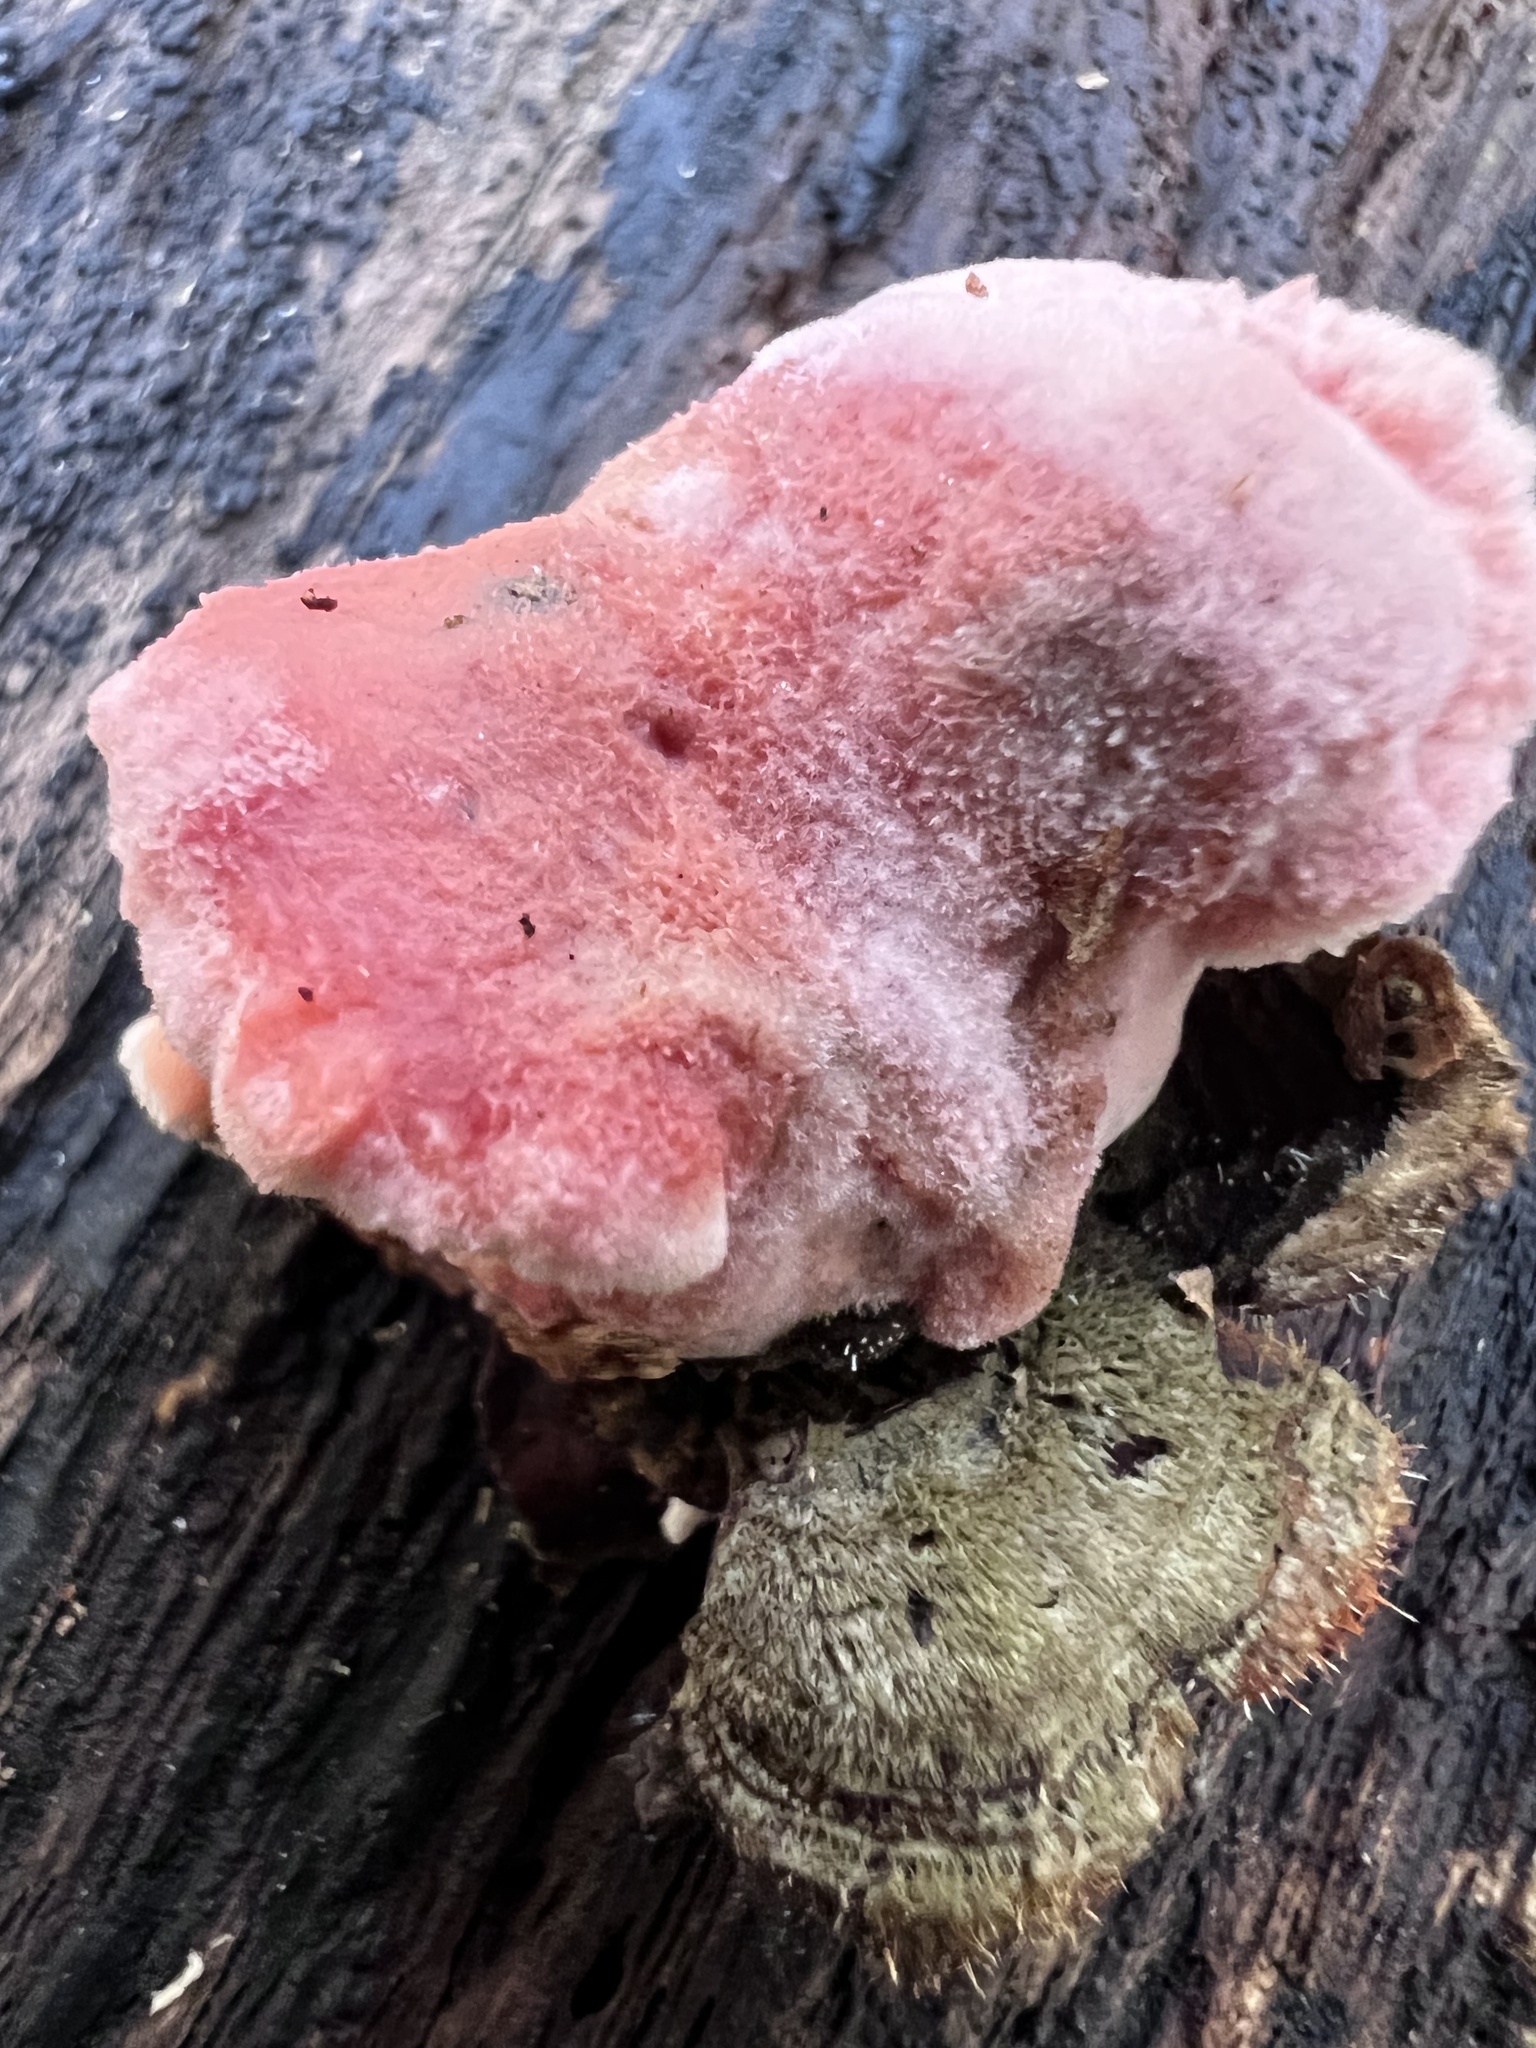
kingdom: Fungi
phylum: Basidiomycota
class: Agaricomycetes
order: Polyporales
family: Irpicaceae
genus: Byssomerulius
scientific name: Byssomerulius incarnatus
